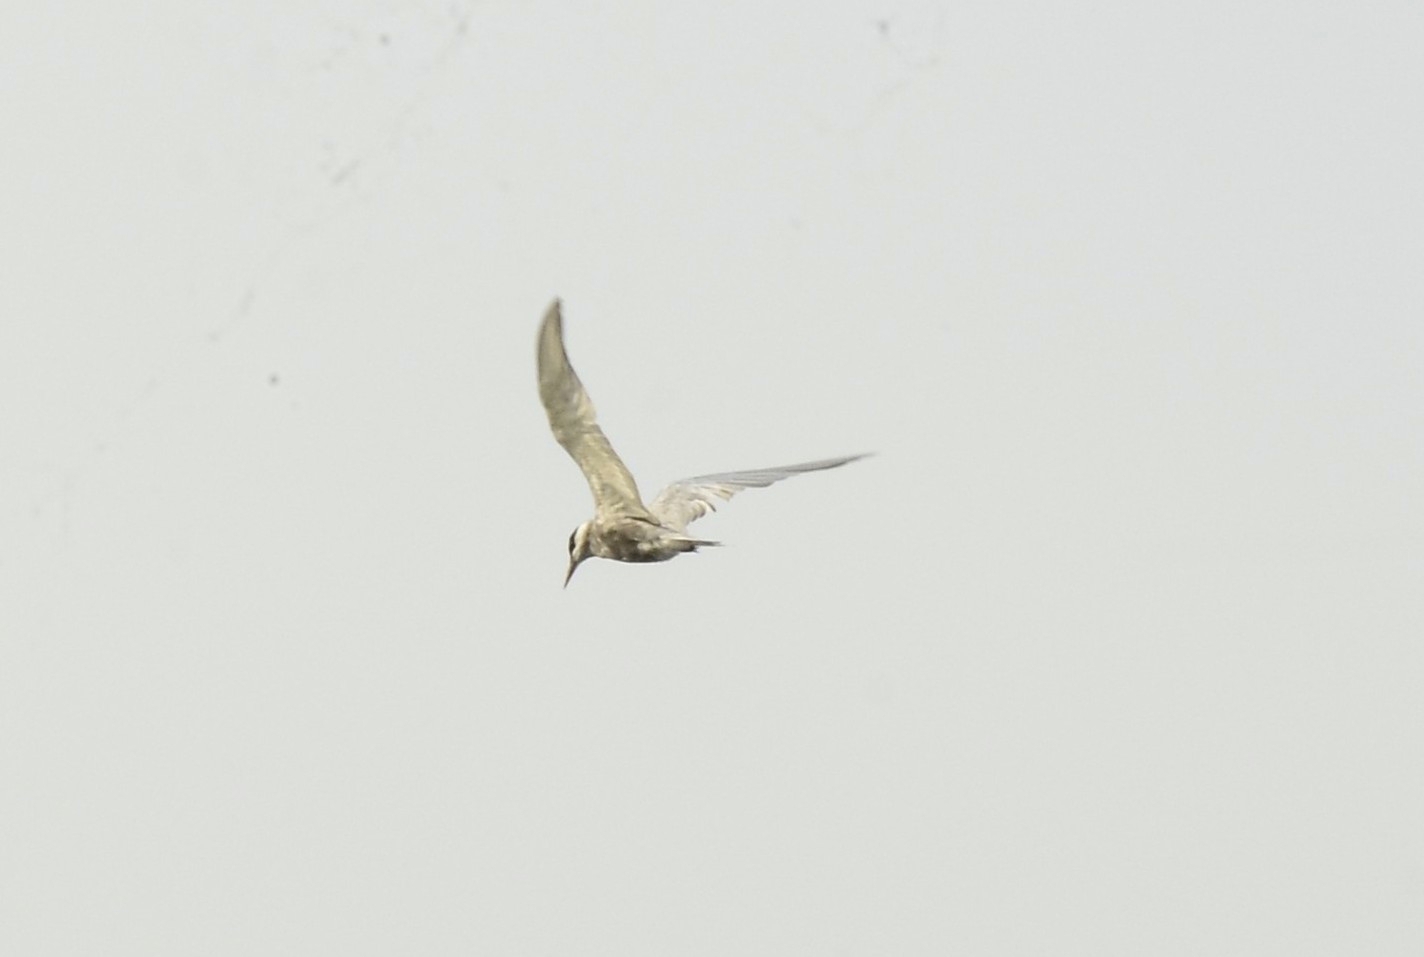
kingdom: Animalia
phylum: Chordata
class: Aves
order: Charadriiformes
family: Laridae
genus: Chlidonias
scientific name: Chlidonias hybrida
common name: Whiskered tern
